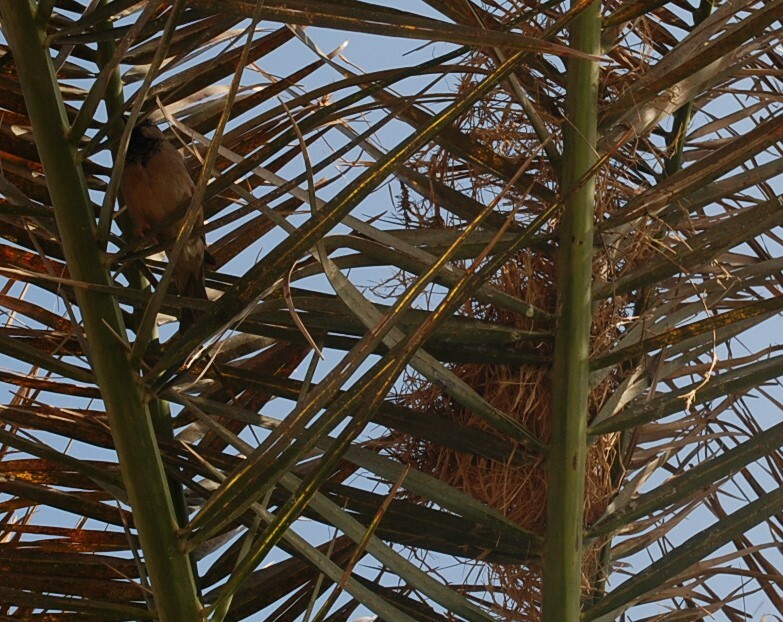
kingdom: Animalia
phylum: Chordata
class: Aves
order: Passeriformes
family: Passeridae
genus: Passer
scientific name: Passer domesticus
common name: House sparrow
